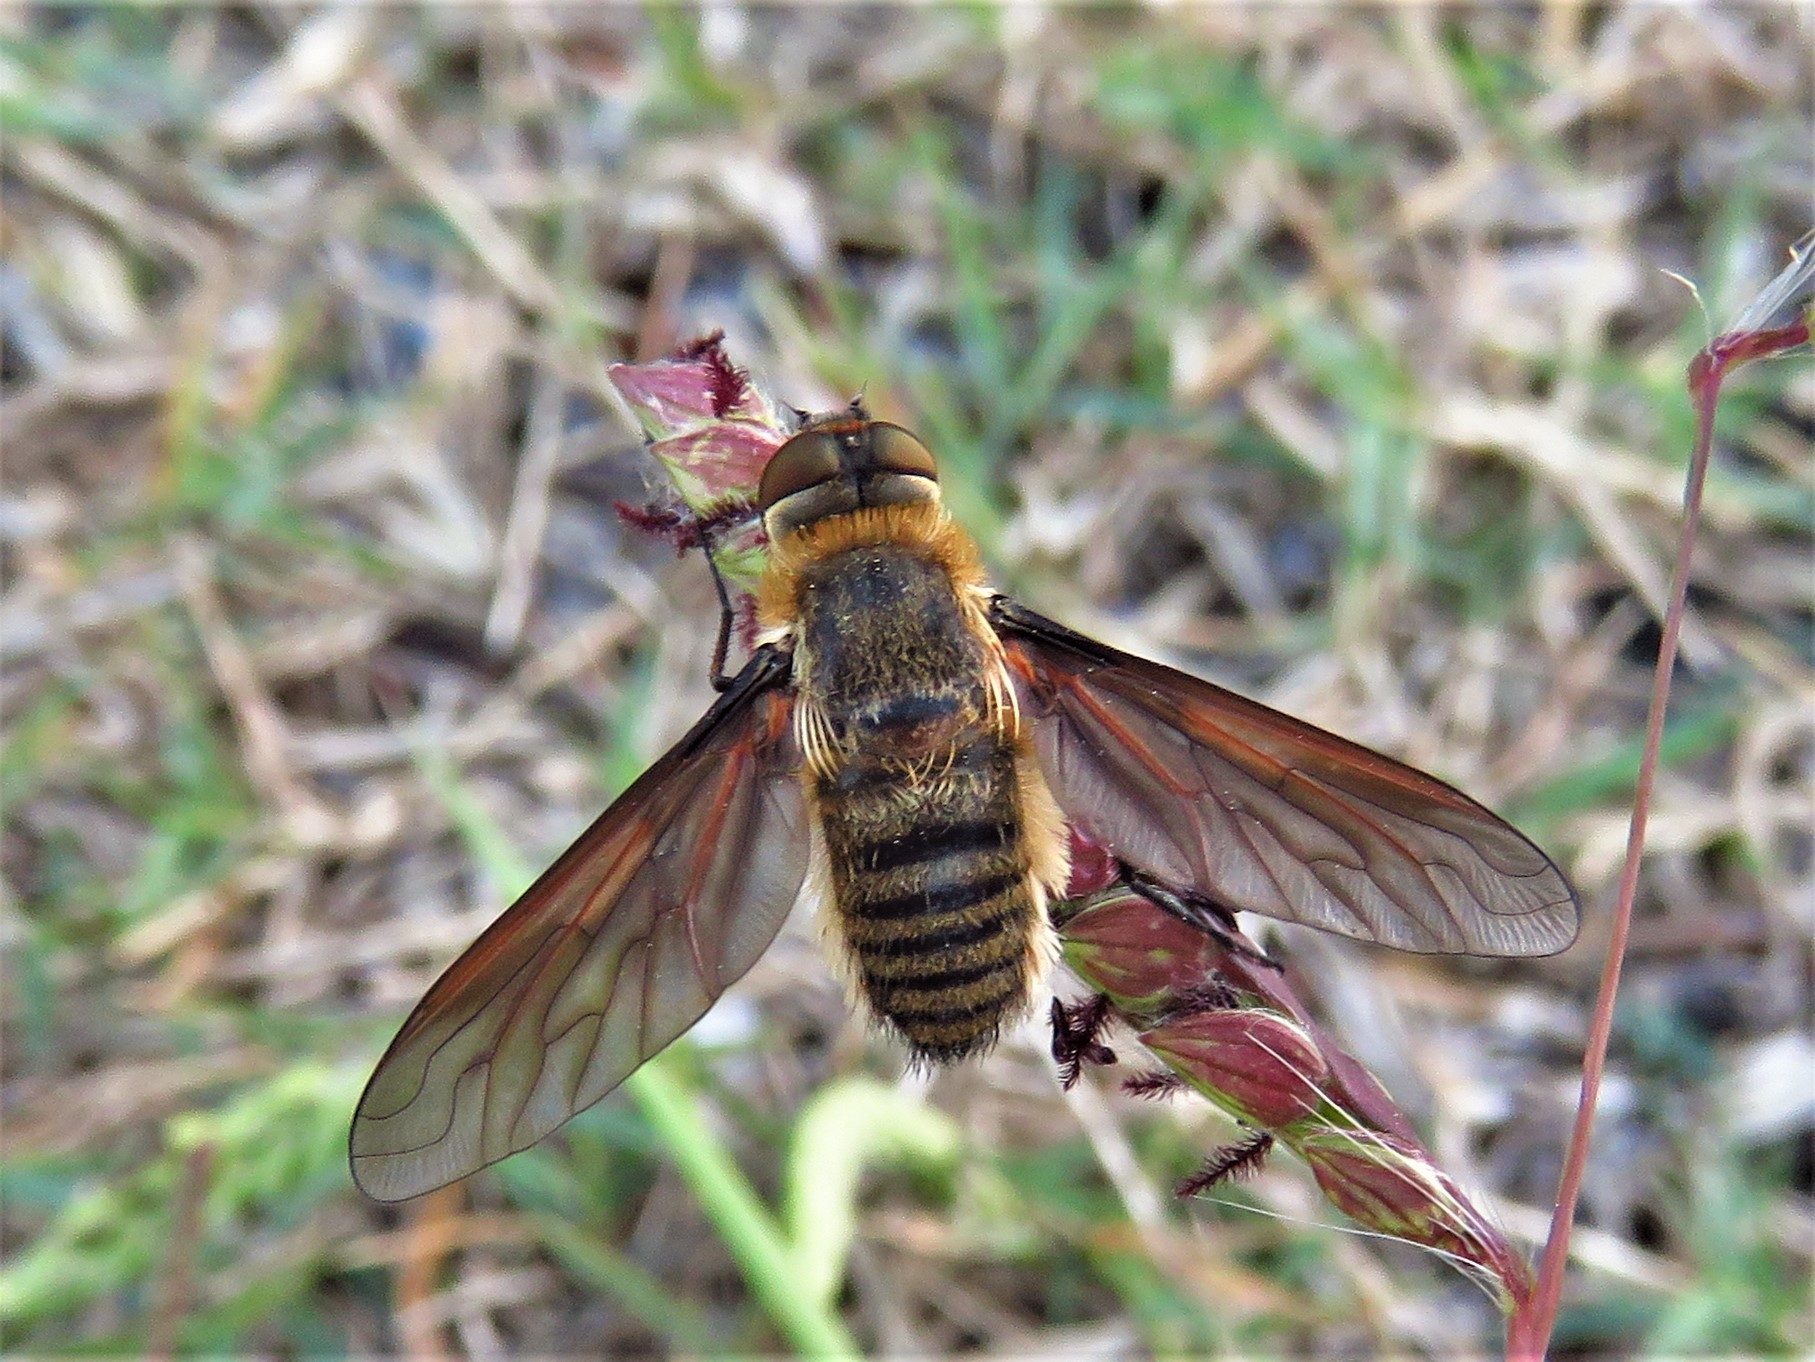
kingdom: Animalia
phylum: Arthropoda
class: Insecta
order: Diptera
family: Bombyliidae
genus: Poecilanthrax
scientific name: Poecilanthrax lucifer
